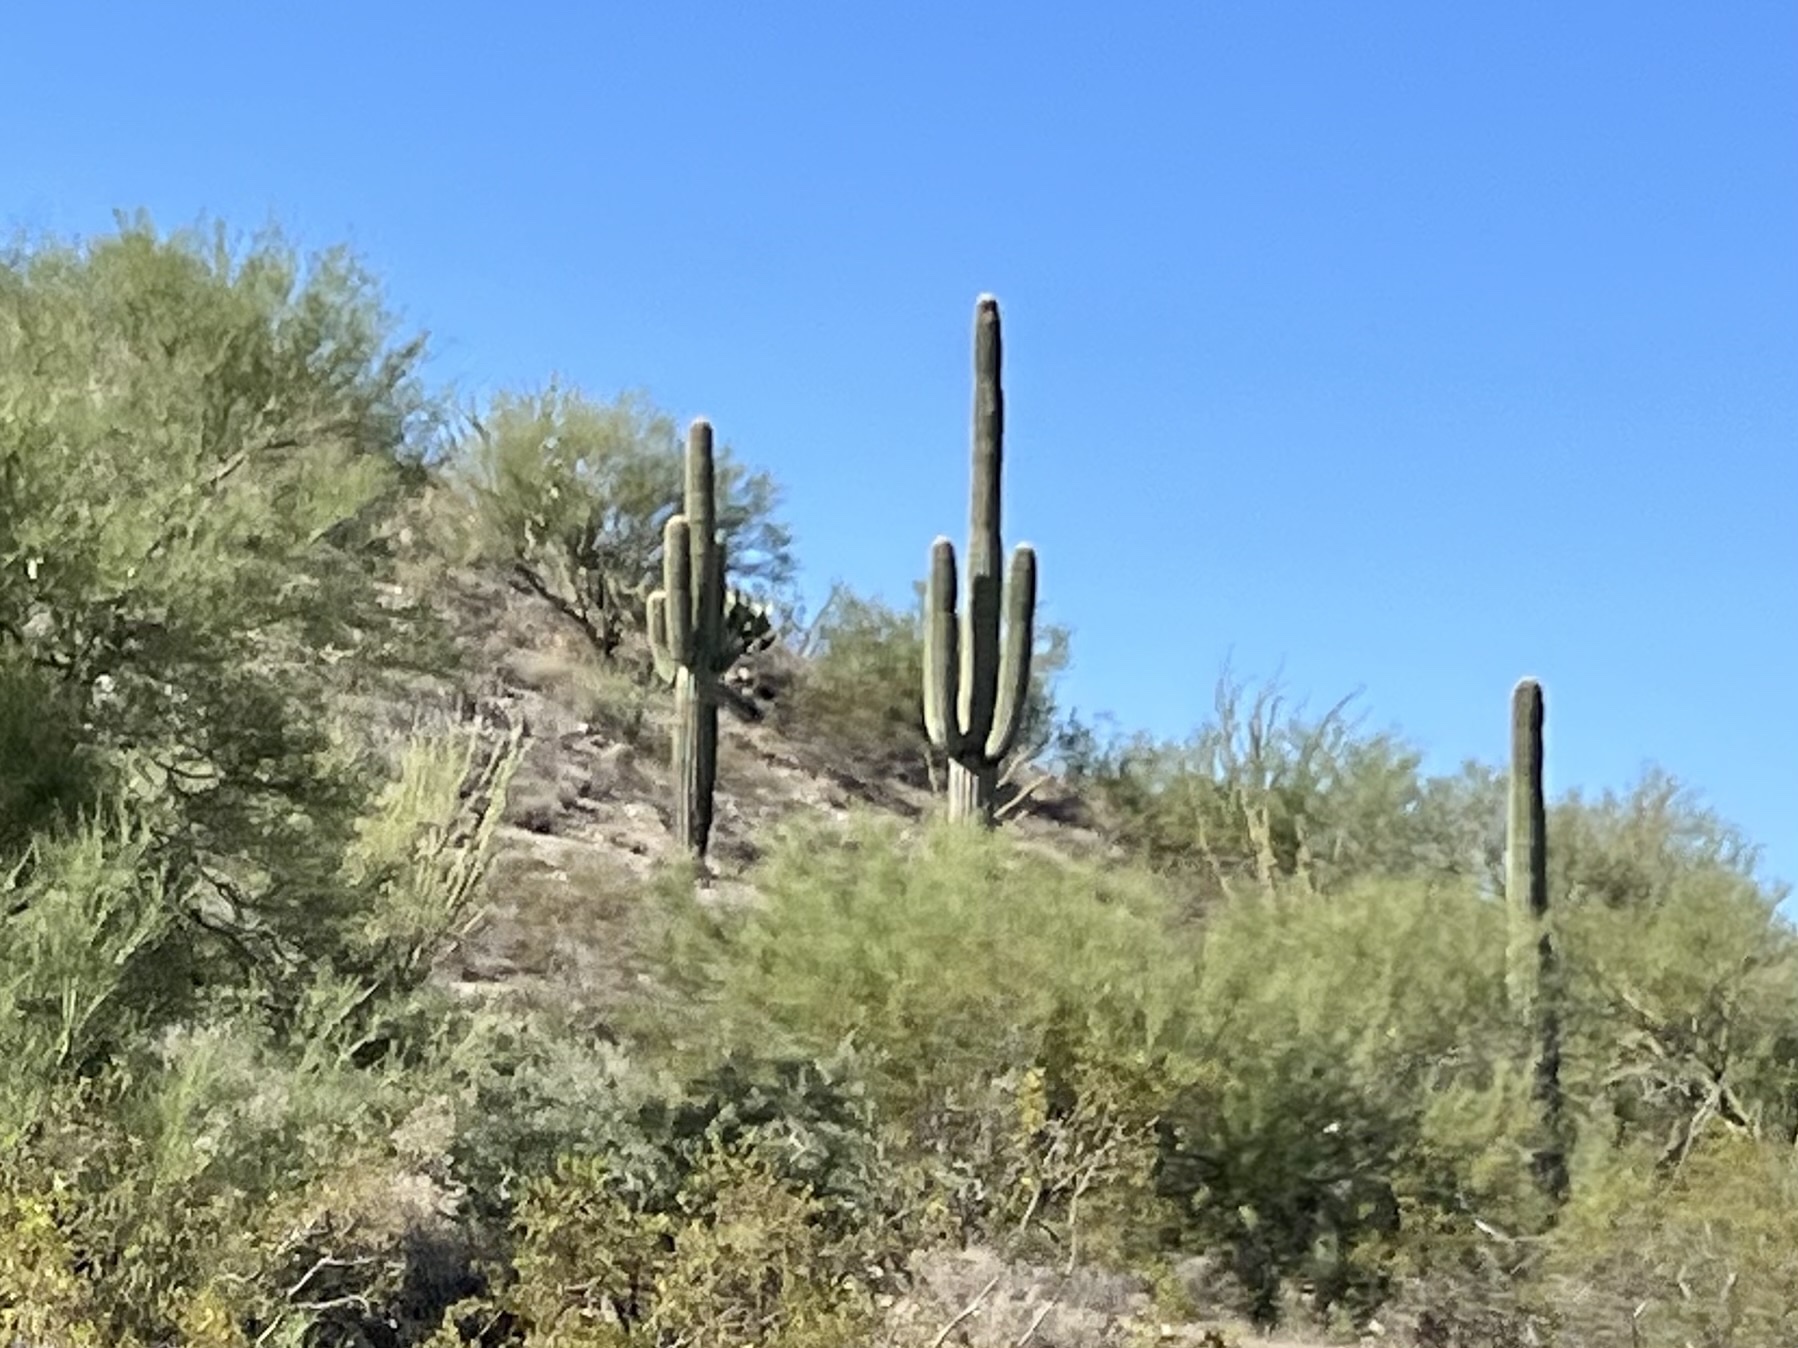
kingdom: Plantae
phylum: Tracheophyta
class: Magnoliopsida
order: Caryophyllales
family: Cactaceae
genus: Carnegiea
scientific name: Carnegiea gigantea
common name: Saguaro
